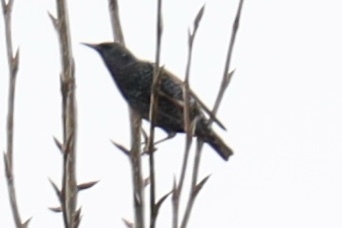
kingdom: Animalia
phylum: Chordata
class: Aves
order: Passeriformes
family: Sturnidae
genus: Sturnus
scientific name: Sturnus vulgaris
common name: Common starling
